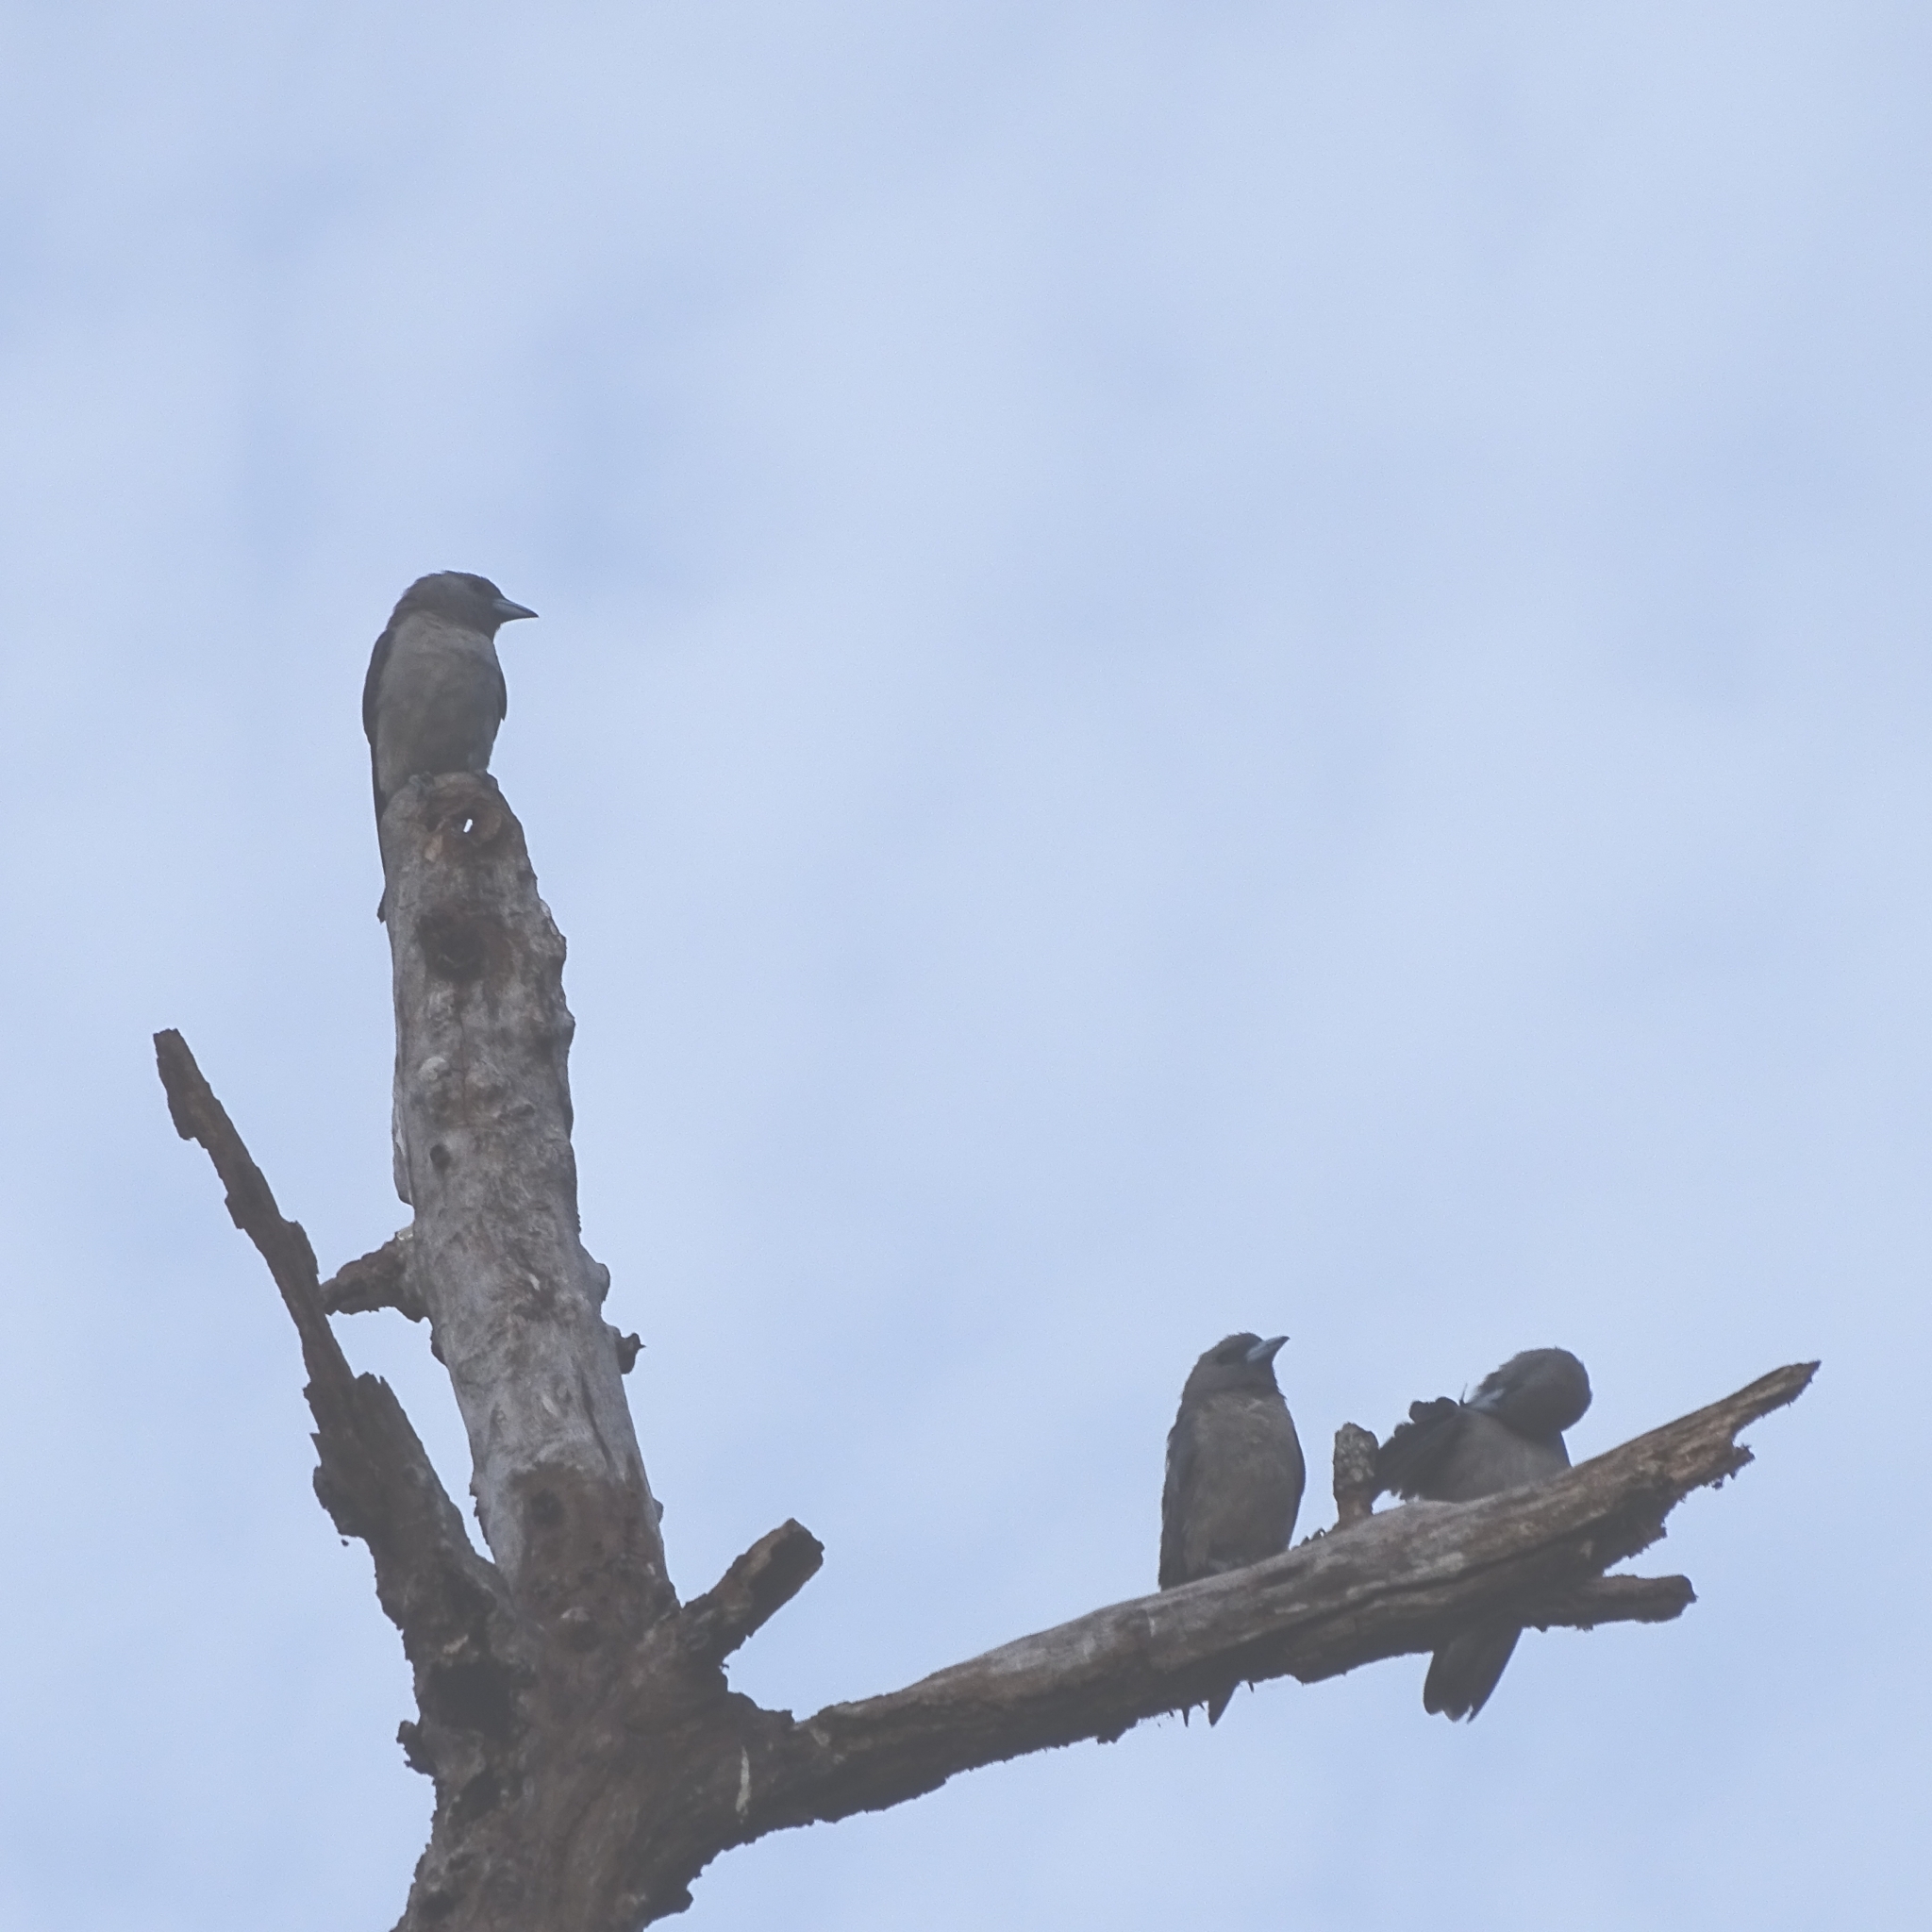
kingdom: Animalia
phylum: Chordata
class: Aves
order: Passeriformes
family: Artamidae
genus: Artamus
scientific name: Artamus fuscus
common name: Ashy woodswallow
